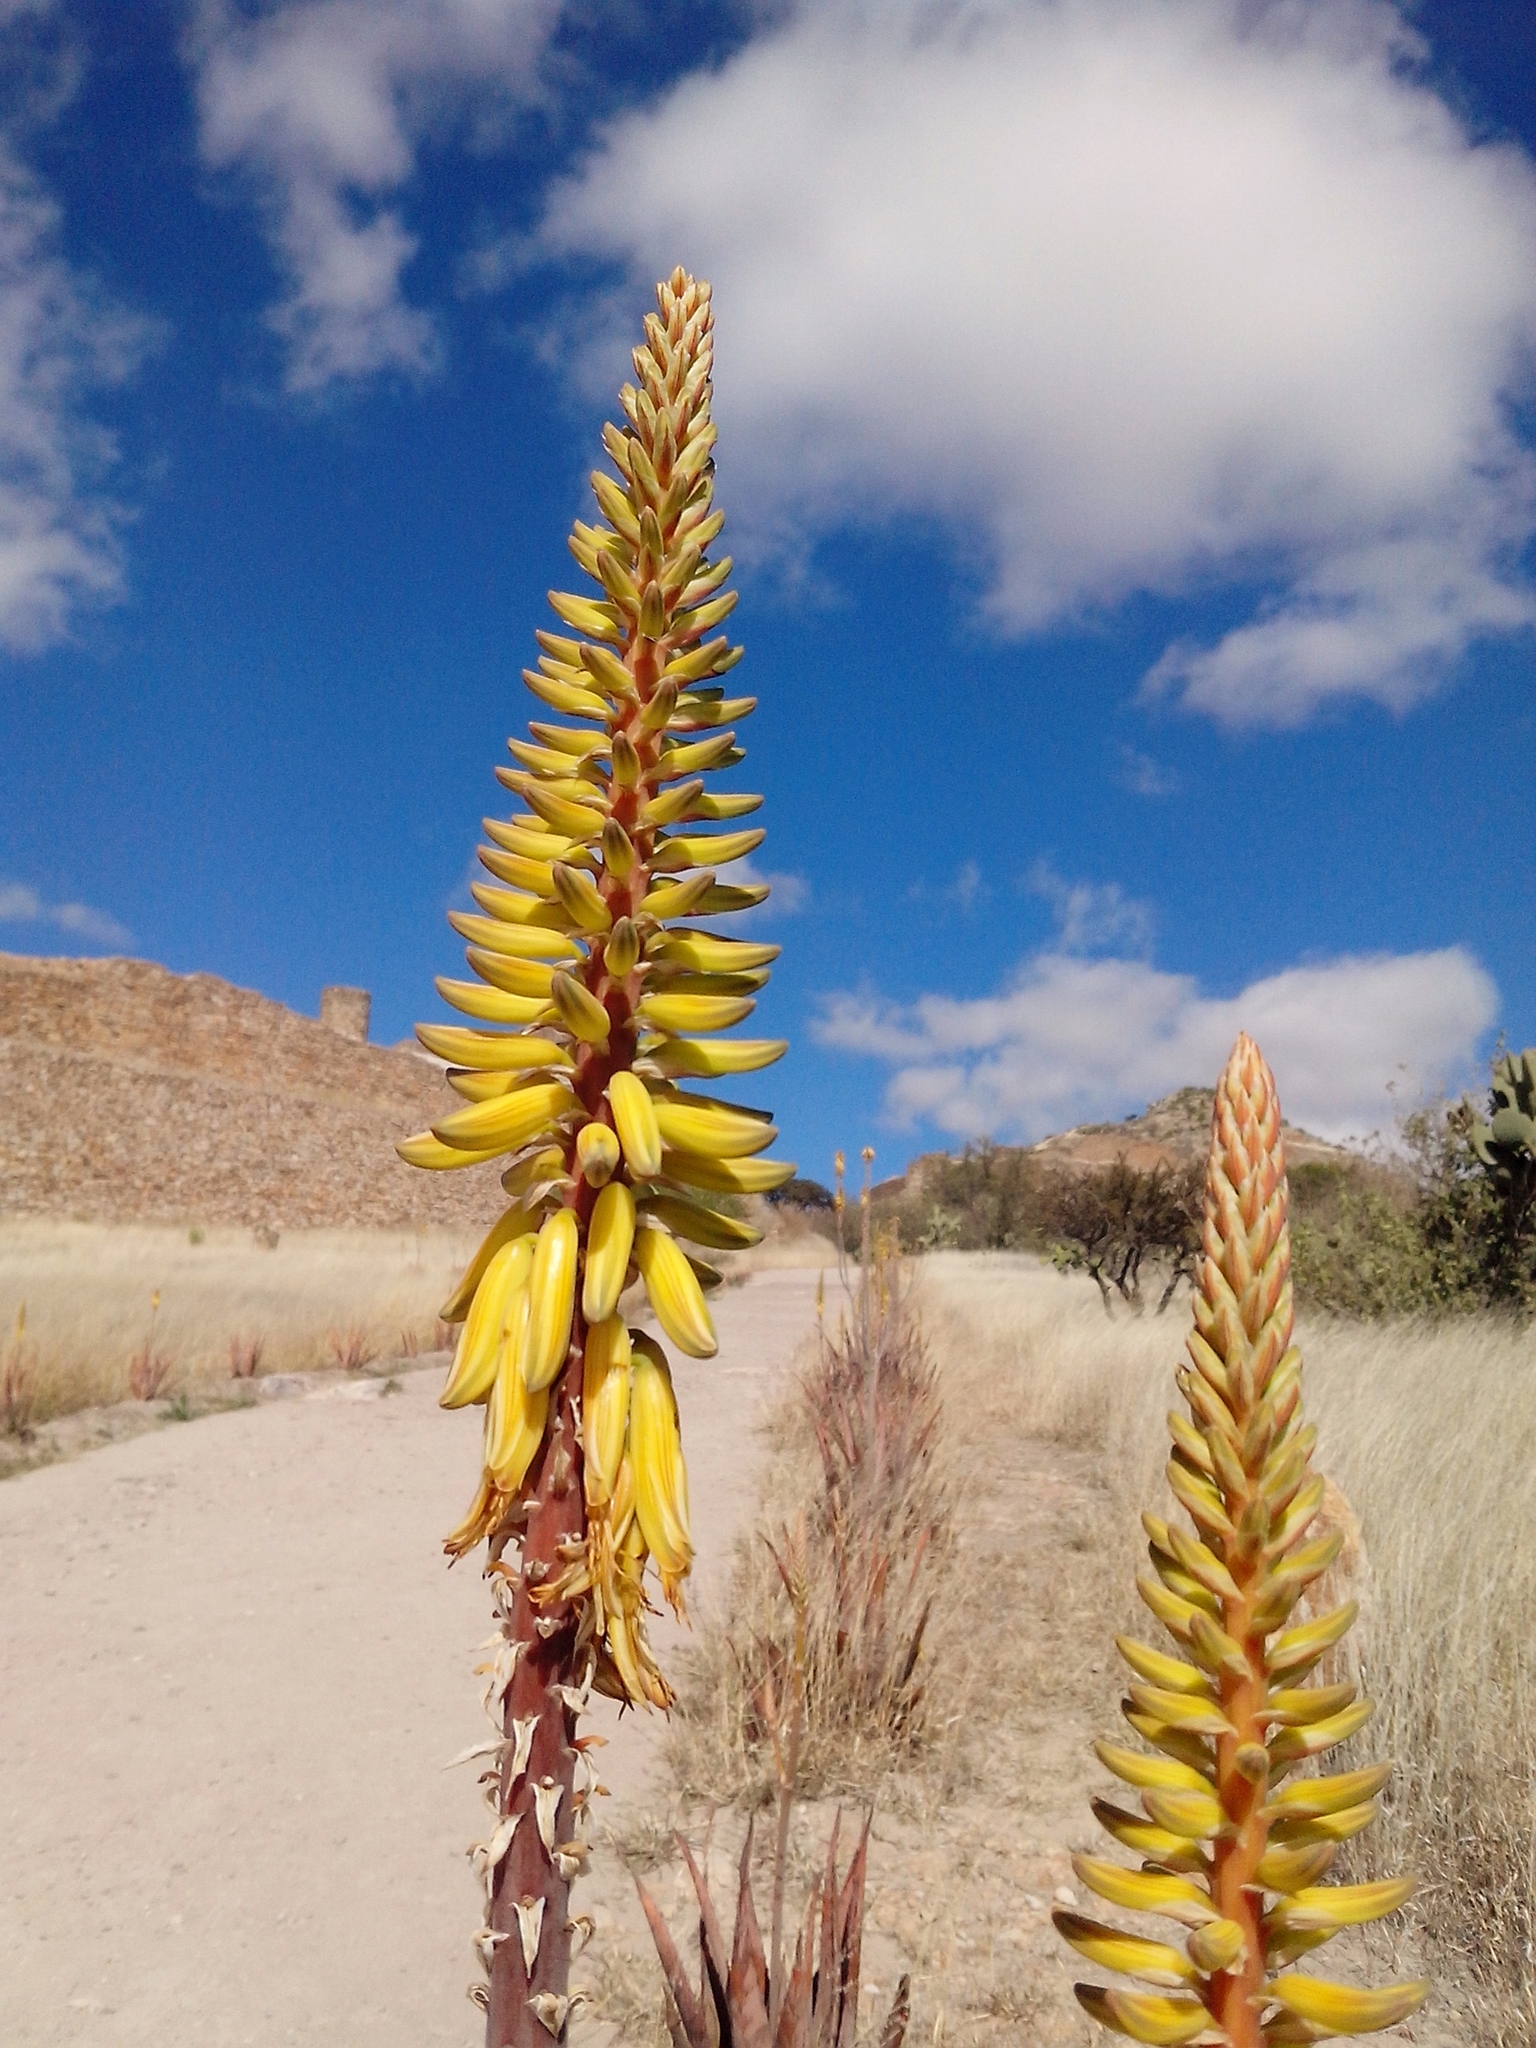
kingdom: Plantae
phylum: Tracheophyta
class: Liliopsida
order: Asparagales
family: Asphodelaceae
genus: Aloe
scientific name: Aloe vera
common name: Barbados aloe
